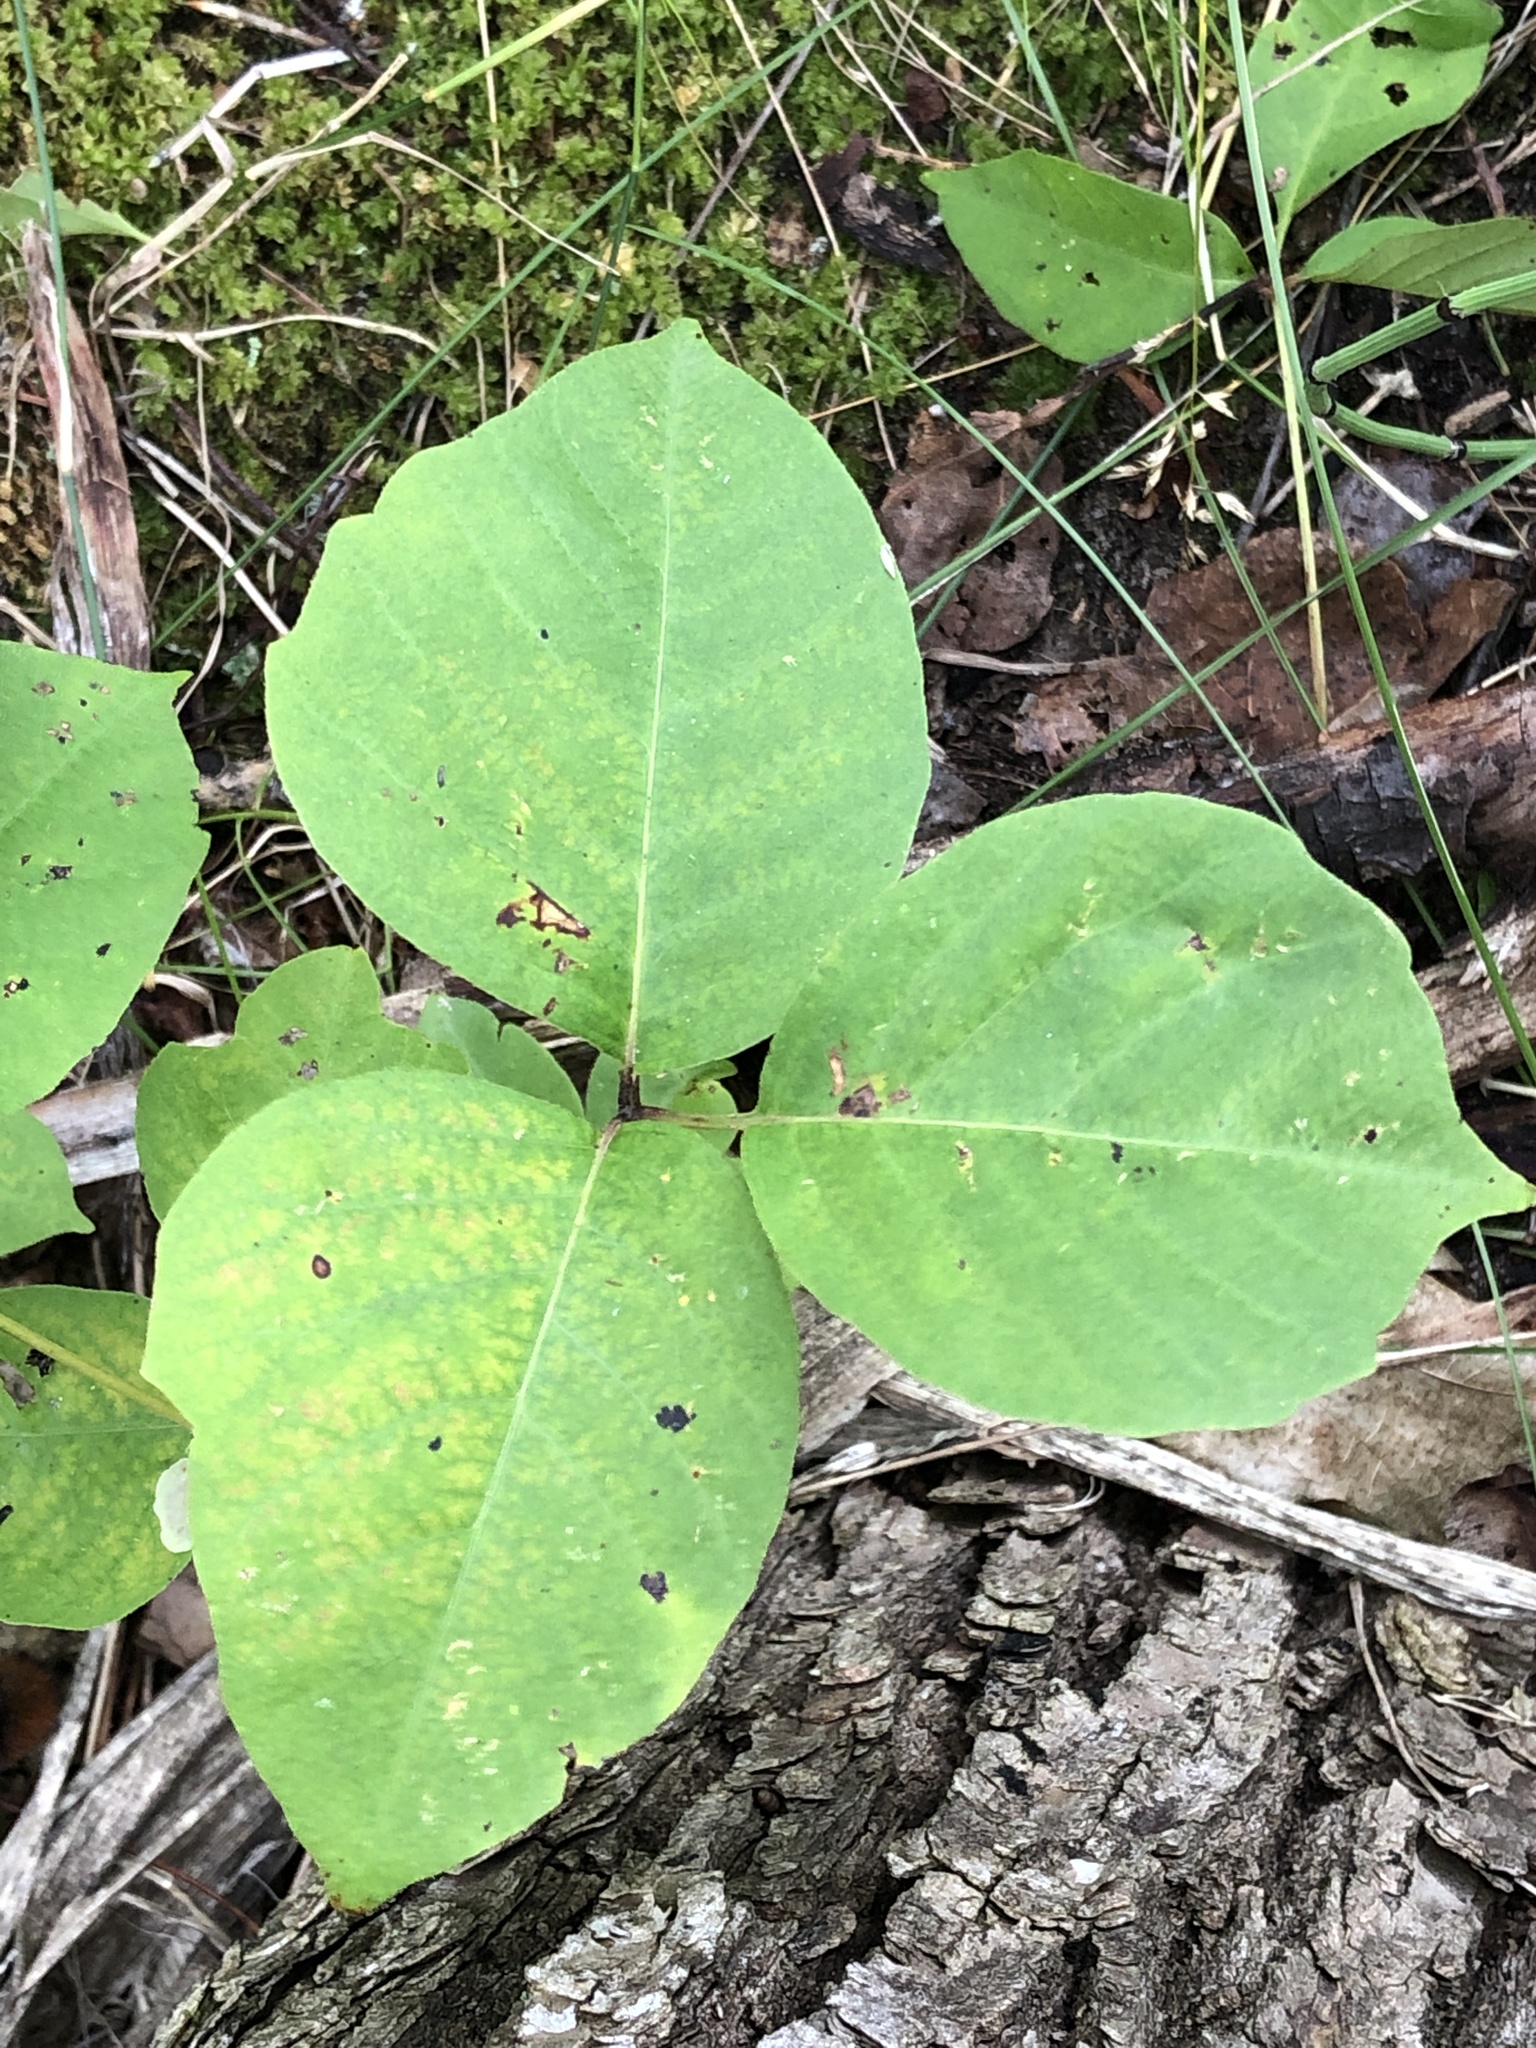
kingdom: Plantae
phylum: Tracheophyta
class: Magnoliopsida
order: Sapindales
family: Anacardiaceae
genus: Toxicodendron
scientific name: Toxicodendron rydbergii
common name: Rydberg's poison-ivy
